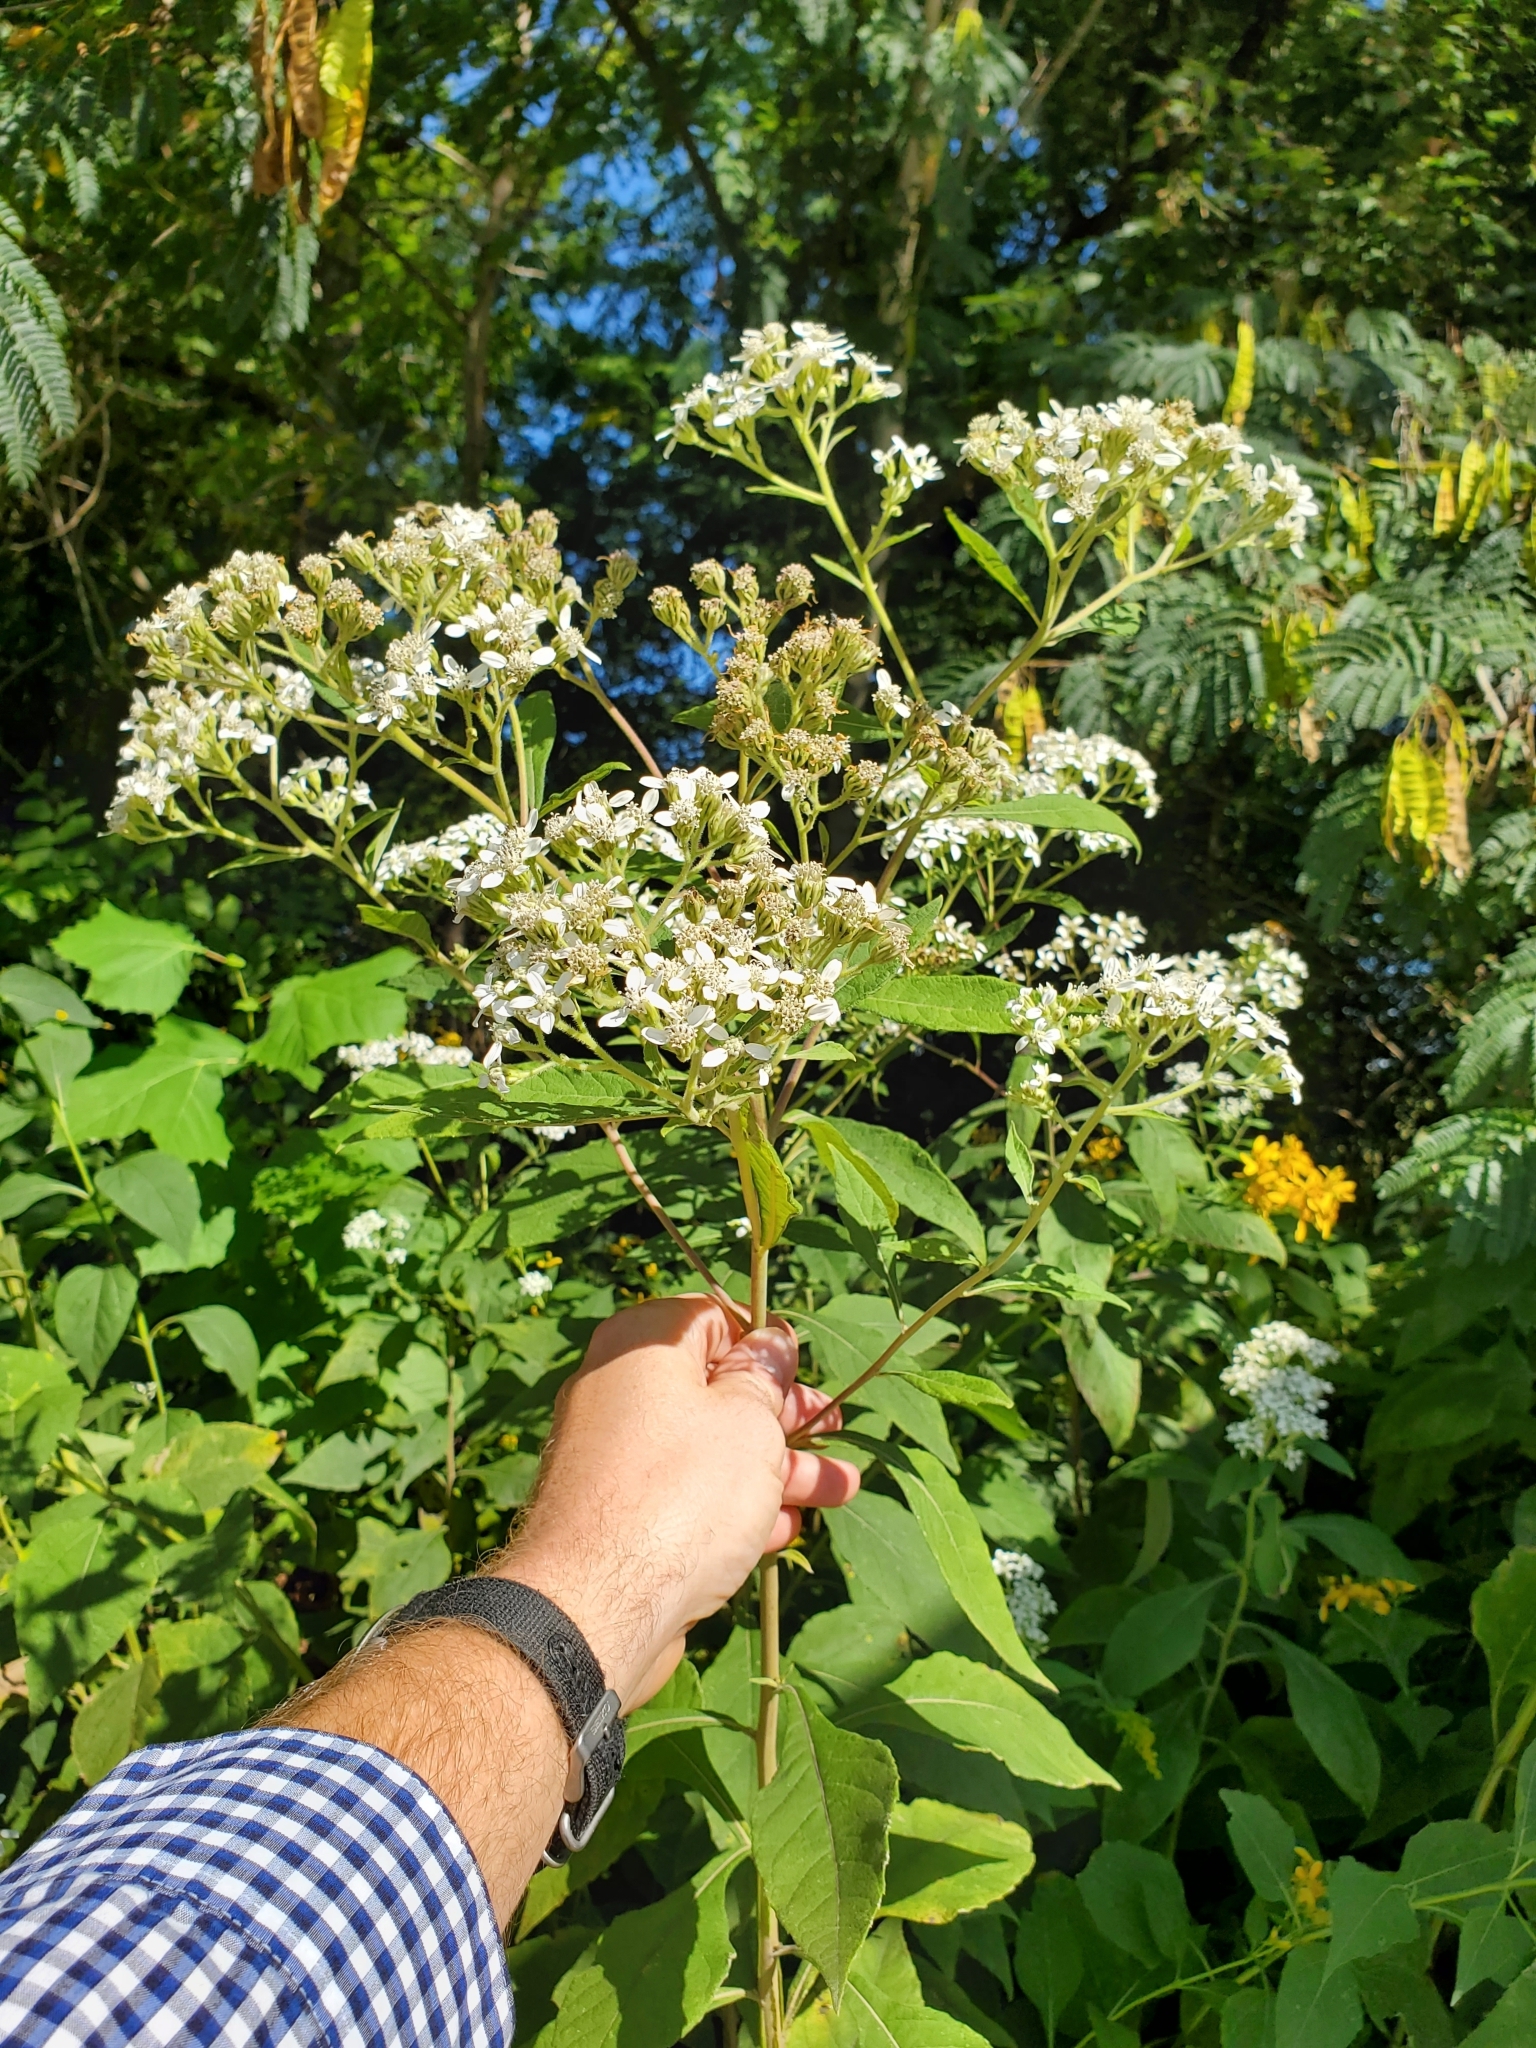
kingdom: Plantae
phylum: Tracheophyta
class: Magnoliopsida
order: Asterales
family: Asteraceae
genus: Verbesina
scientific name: Verbesina virginica
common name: Frostweed
